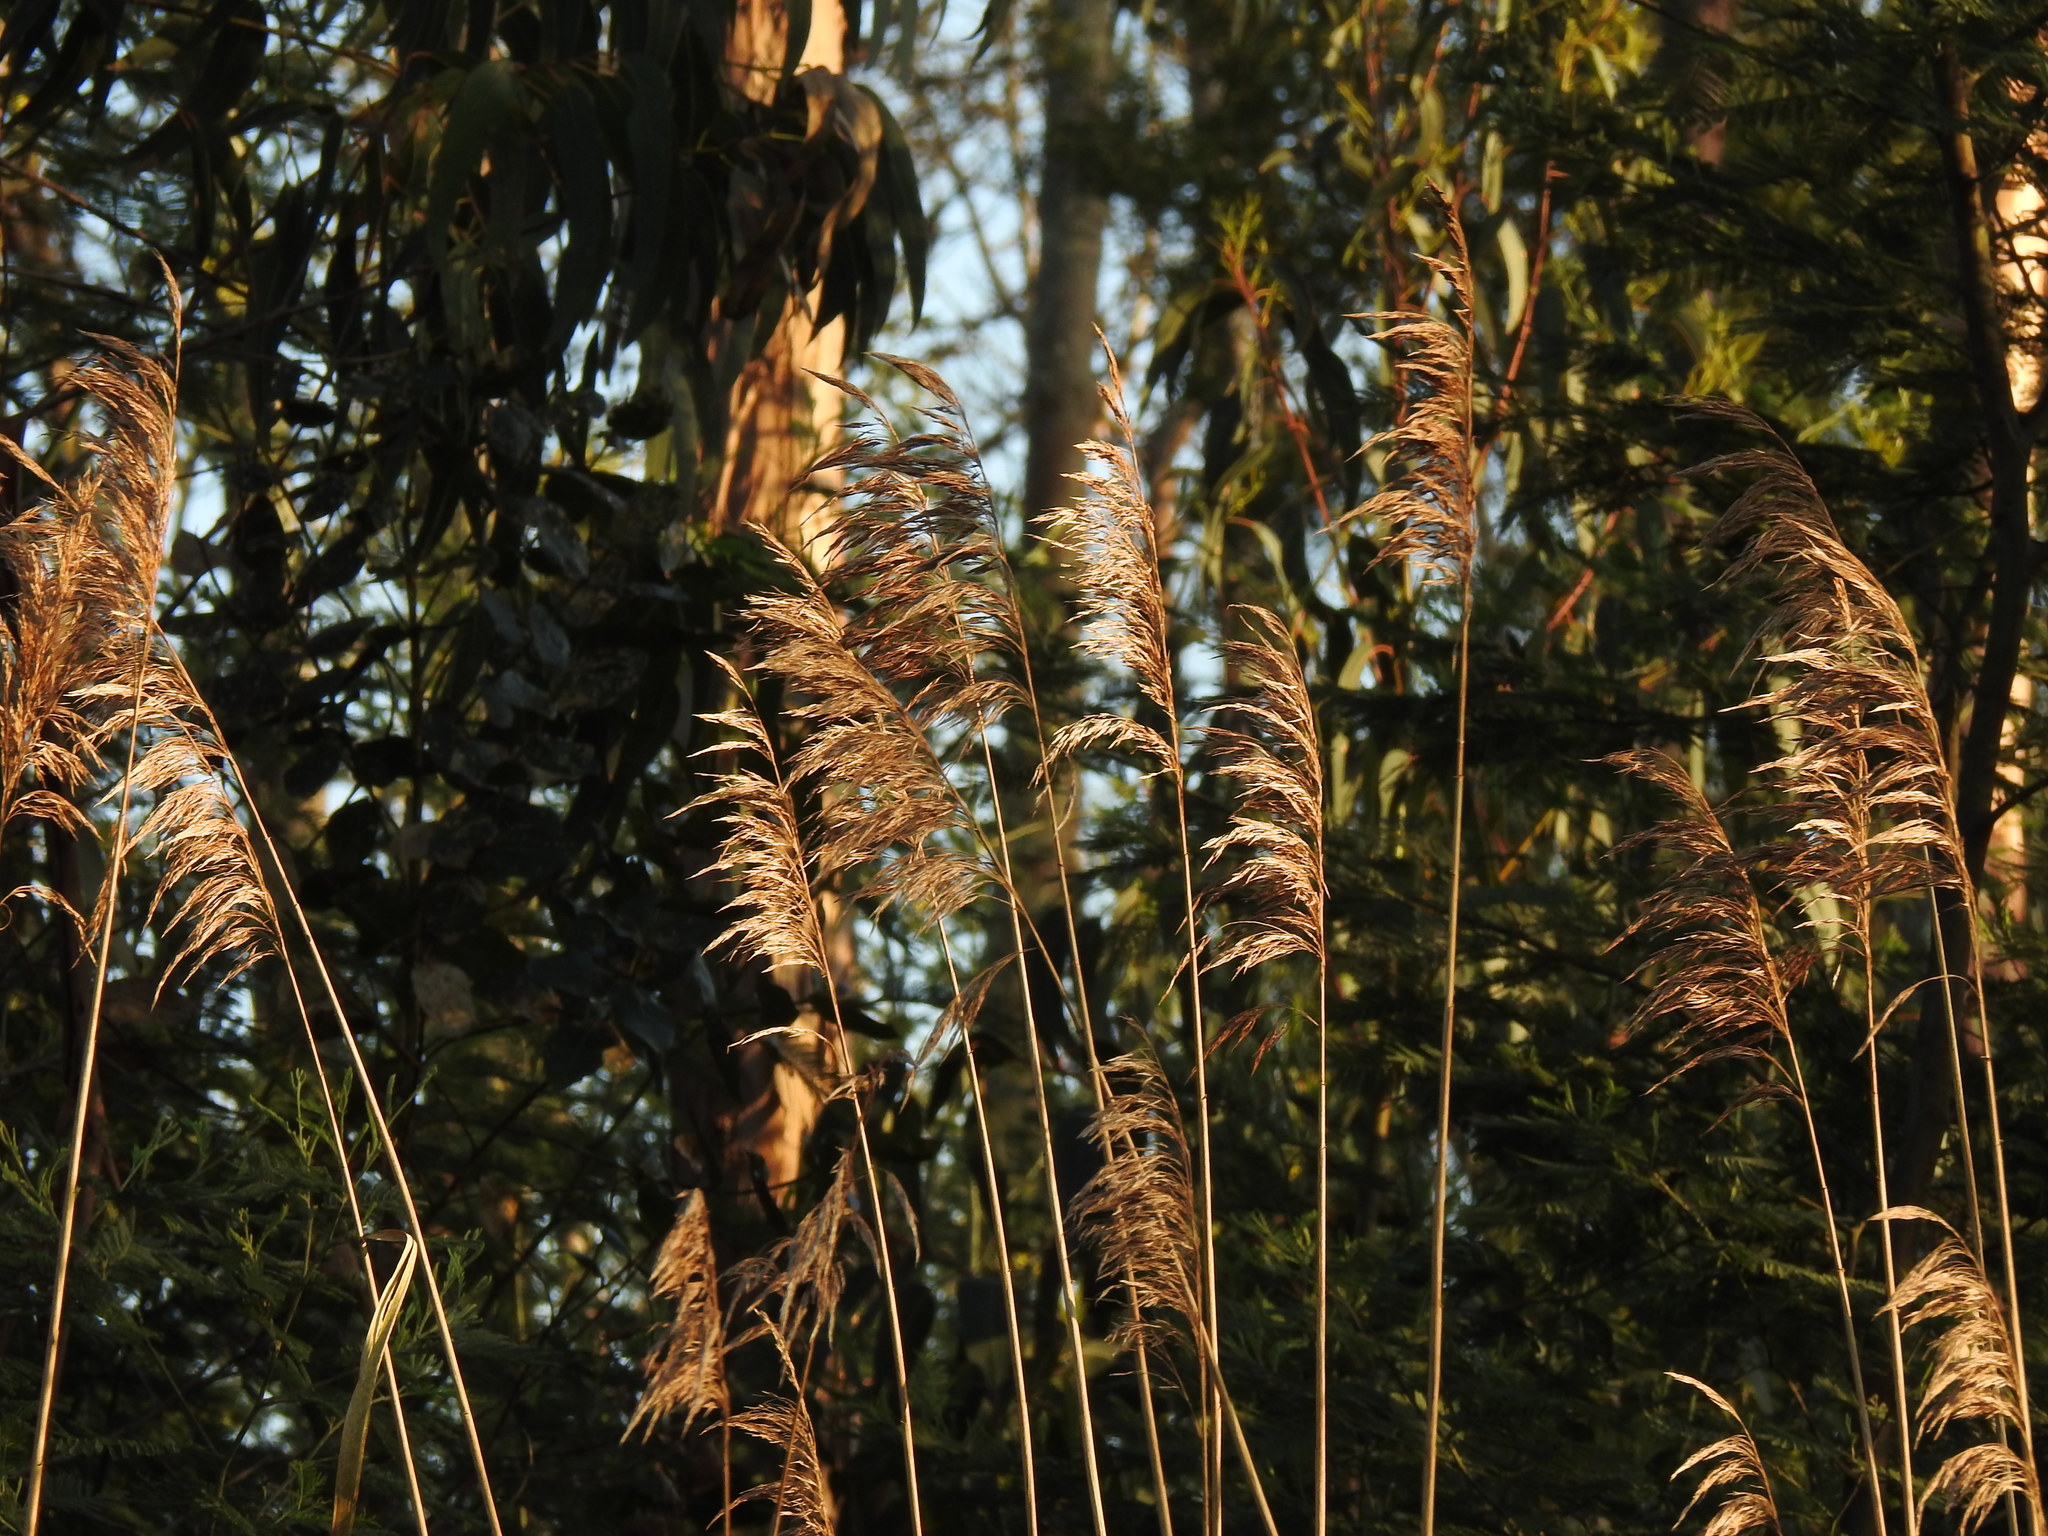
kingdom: Plantae
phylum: Tracheophyta
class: Liliopsida
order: Poales
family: Poaceae
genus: Phragmites
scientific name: Phragmites australis
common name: Common reed
